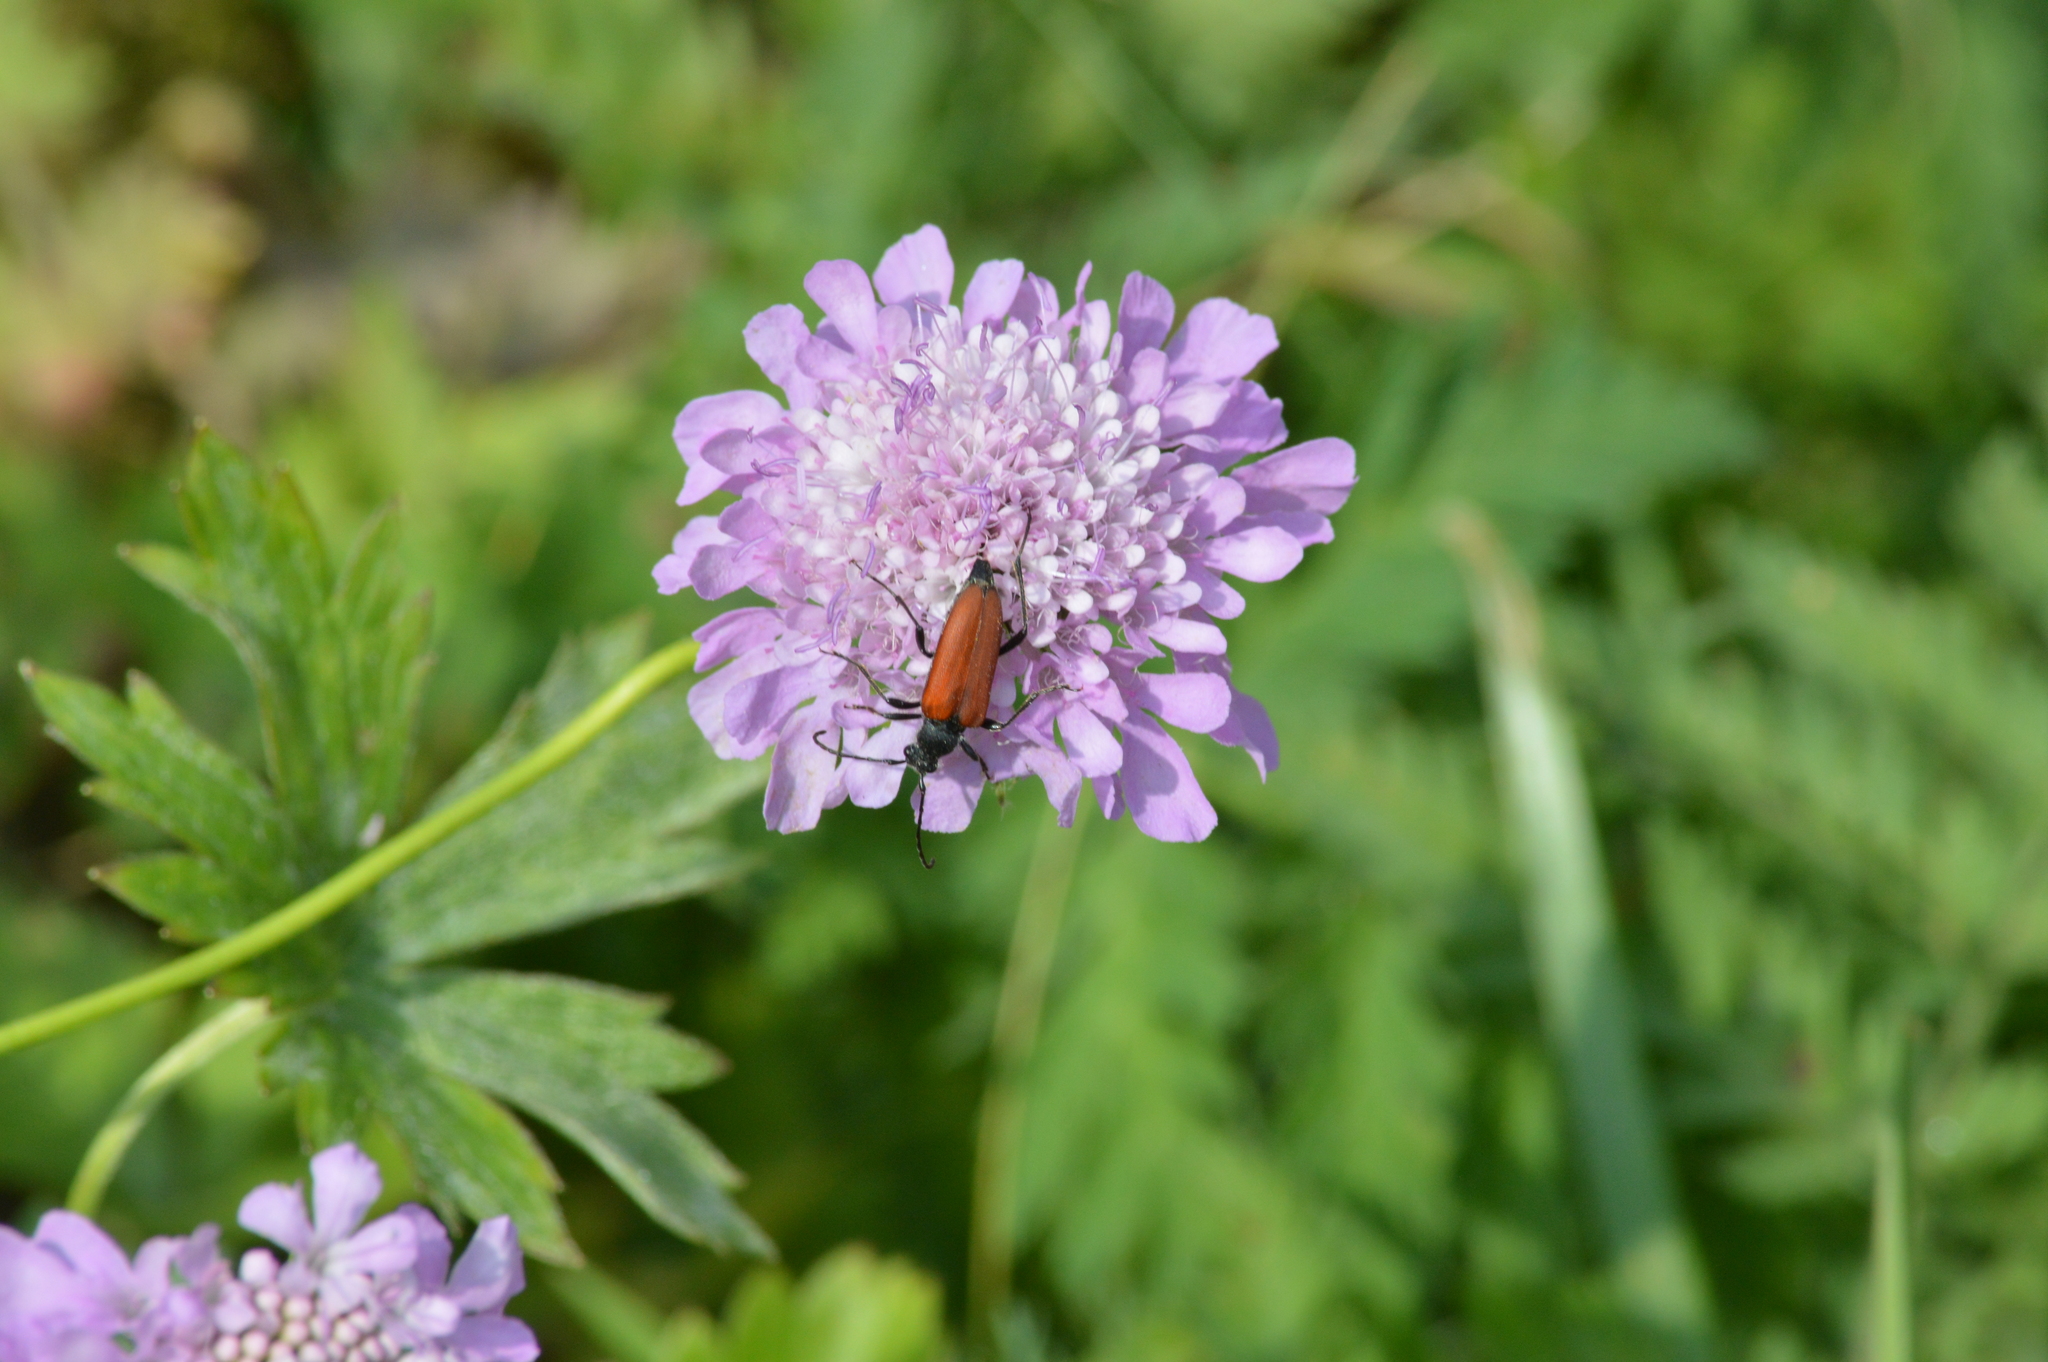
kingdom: Animalia
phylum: Arthropoda
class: Insecta
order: Coleoptera
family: Cerambycidae
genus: Anastrangalia
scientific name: Anastrangalia sanguinolenta
